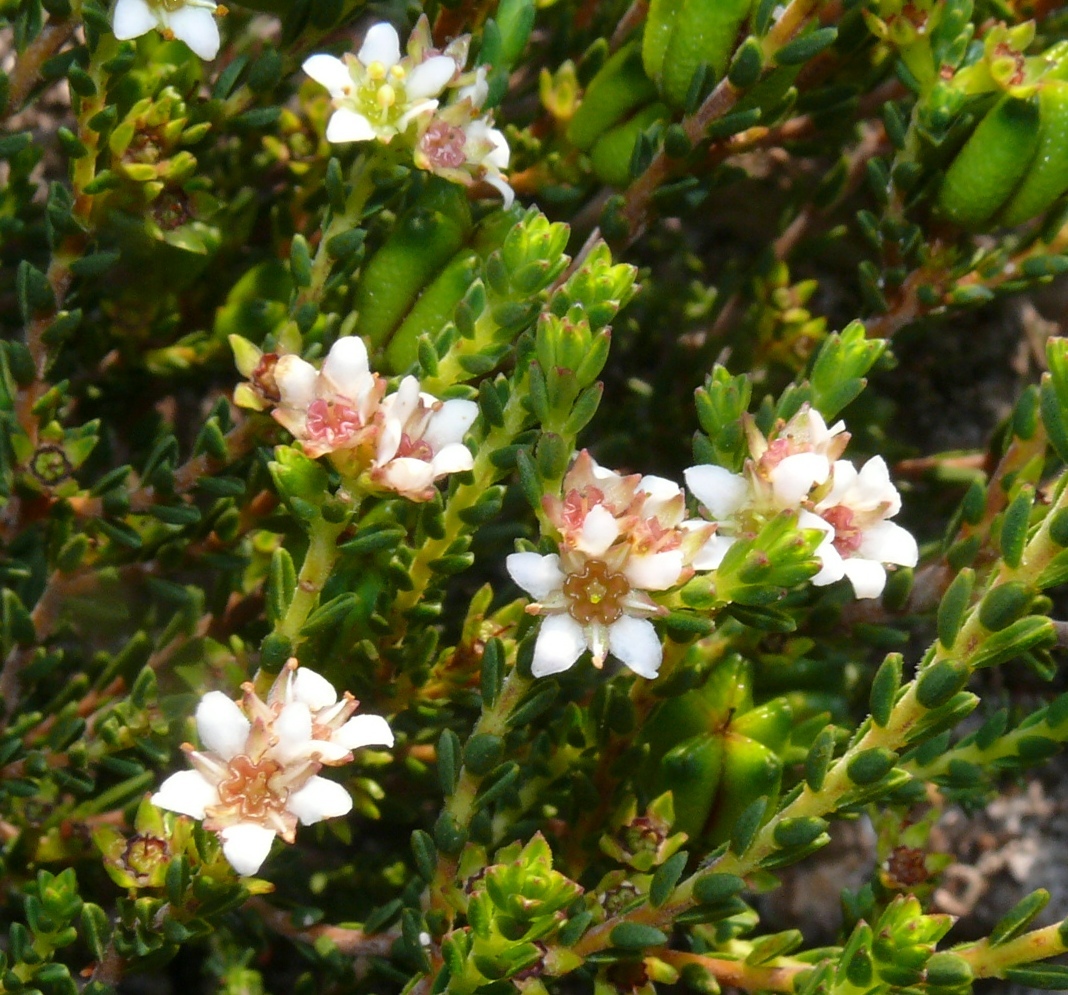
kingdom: Plantae
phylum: Tracheophyta
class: Magnoliopsida
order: Sapindales
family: Rutaceae
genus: Diosma
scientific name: Diosma oppositifolia
